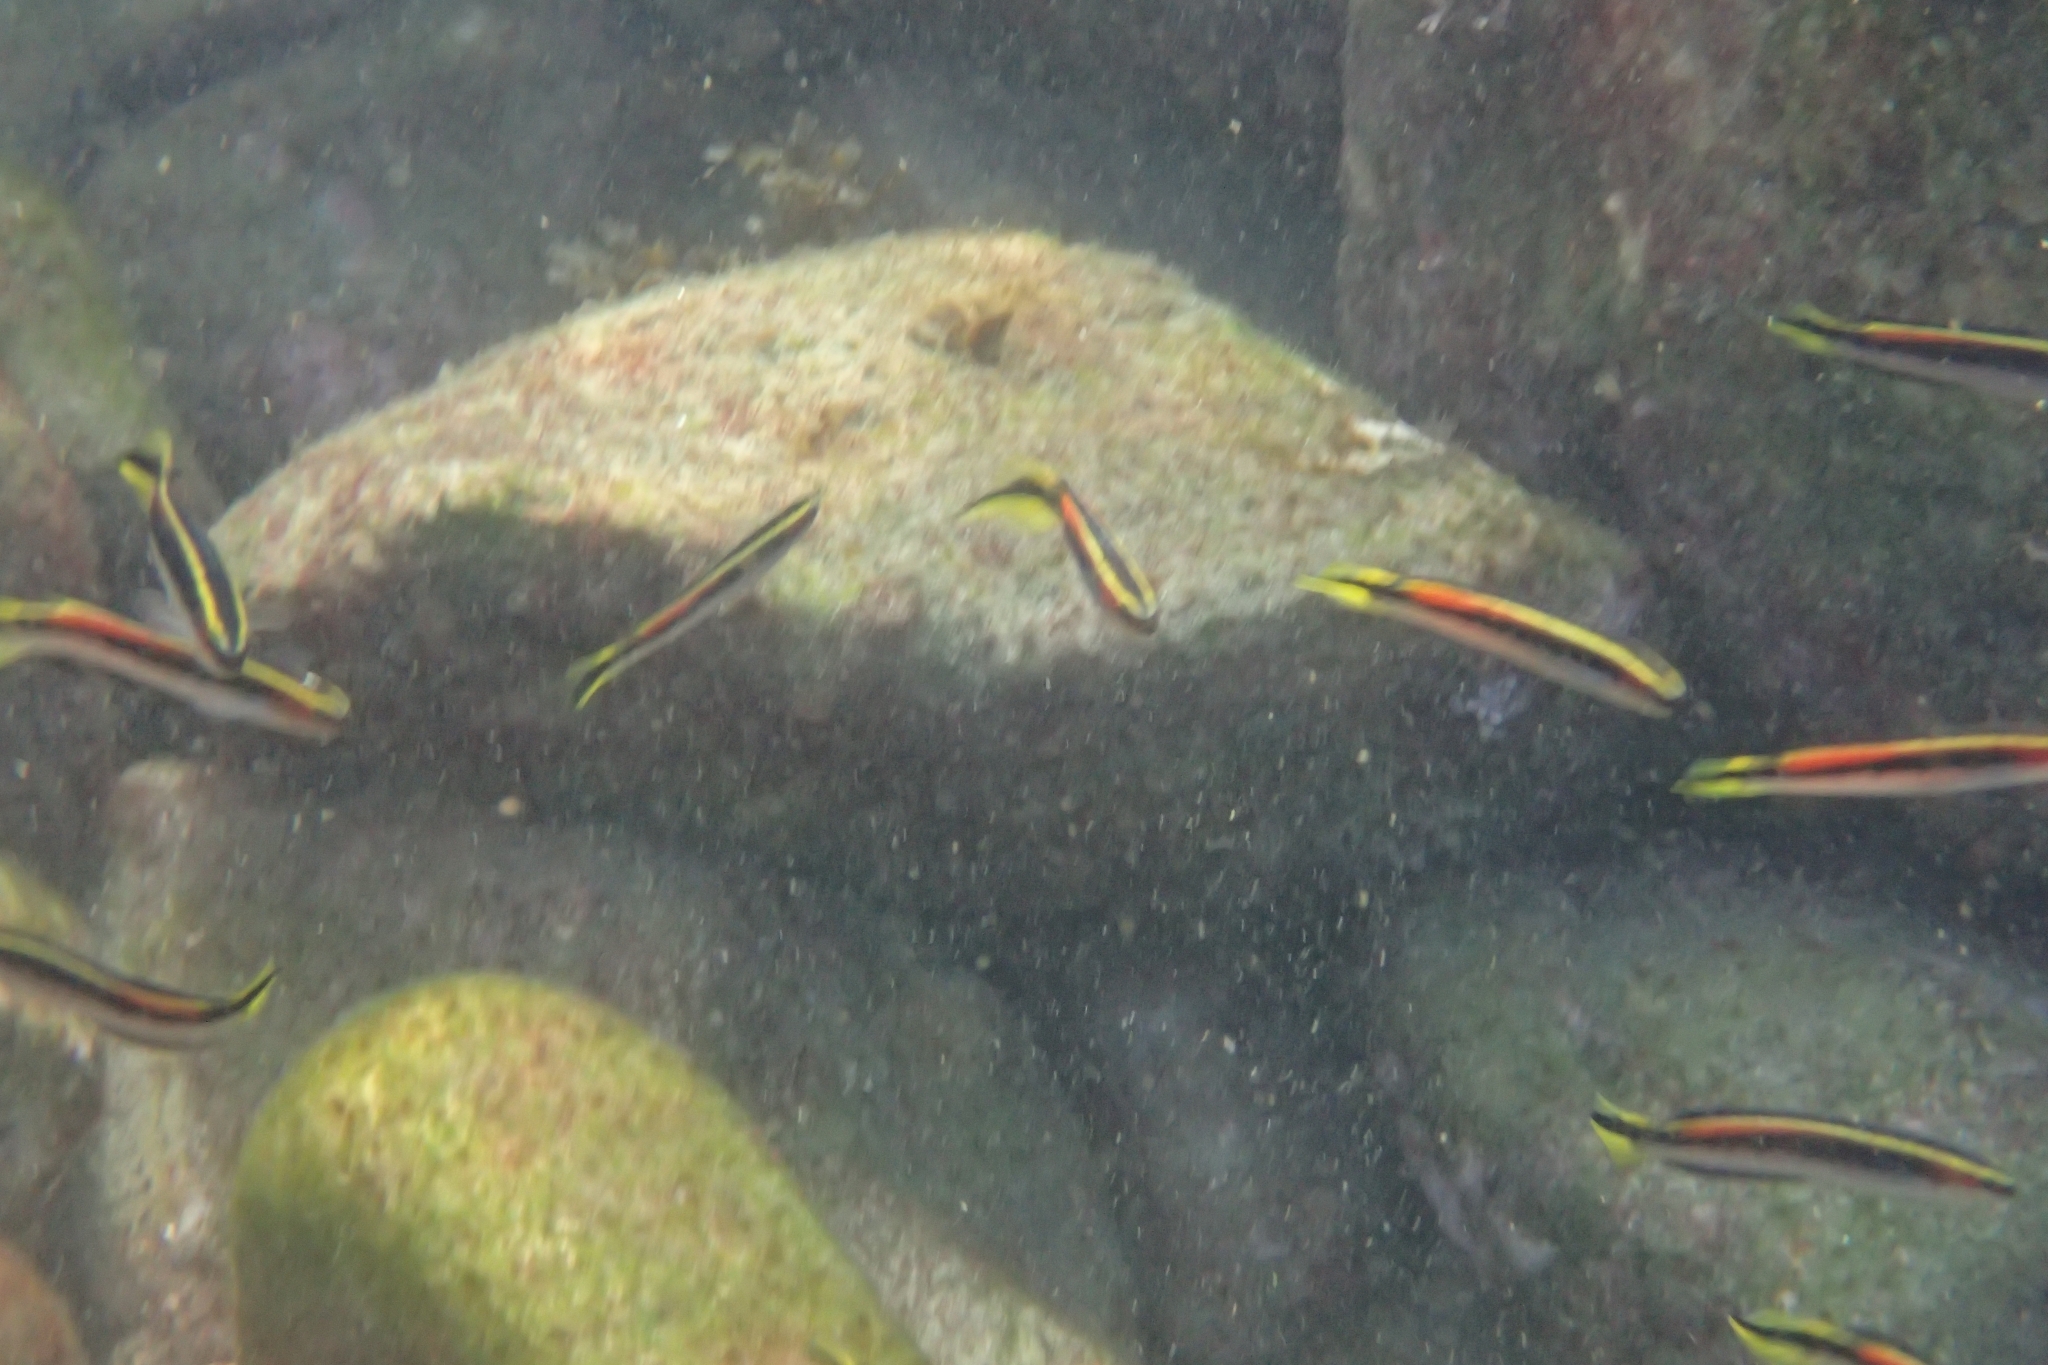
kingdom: Animalia
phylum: Chordata
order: Perciformes
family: Plesiopidae
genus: Trachinops
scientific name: Trachinops taeniatus
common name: Eastern hulafish
